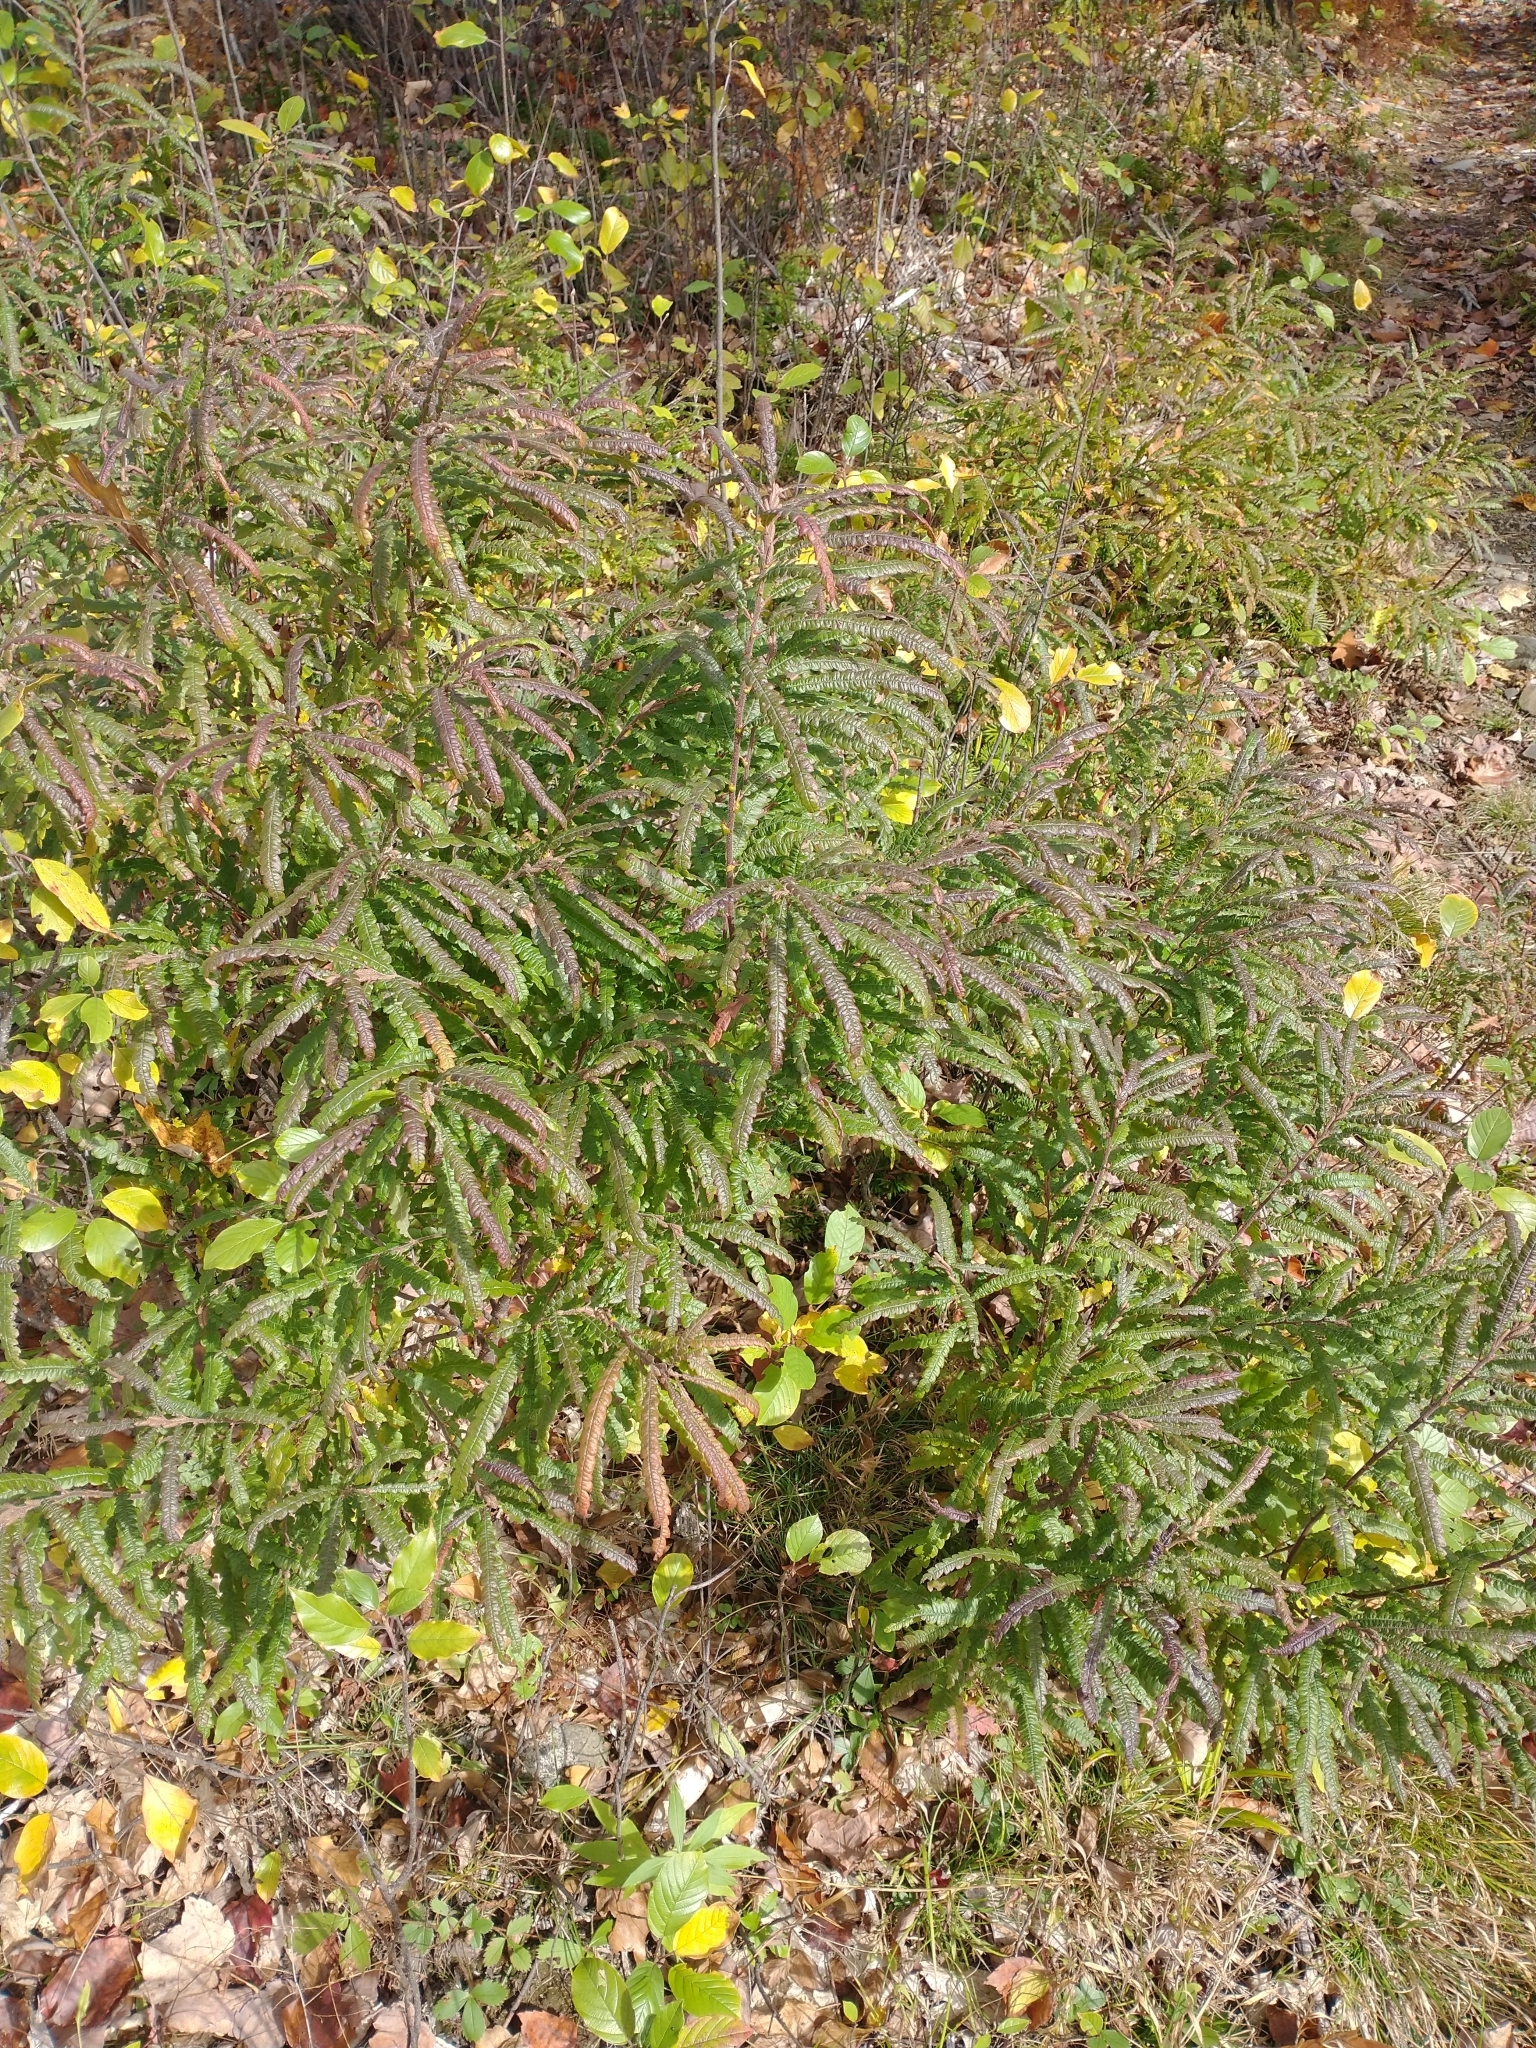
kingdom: Plantae
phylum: Tracheophyta
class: Magnoliopsida
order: Fagales
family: Myricaceae
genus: Comptonia
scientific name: Comptonia peregrina
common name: Sweet-fern
